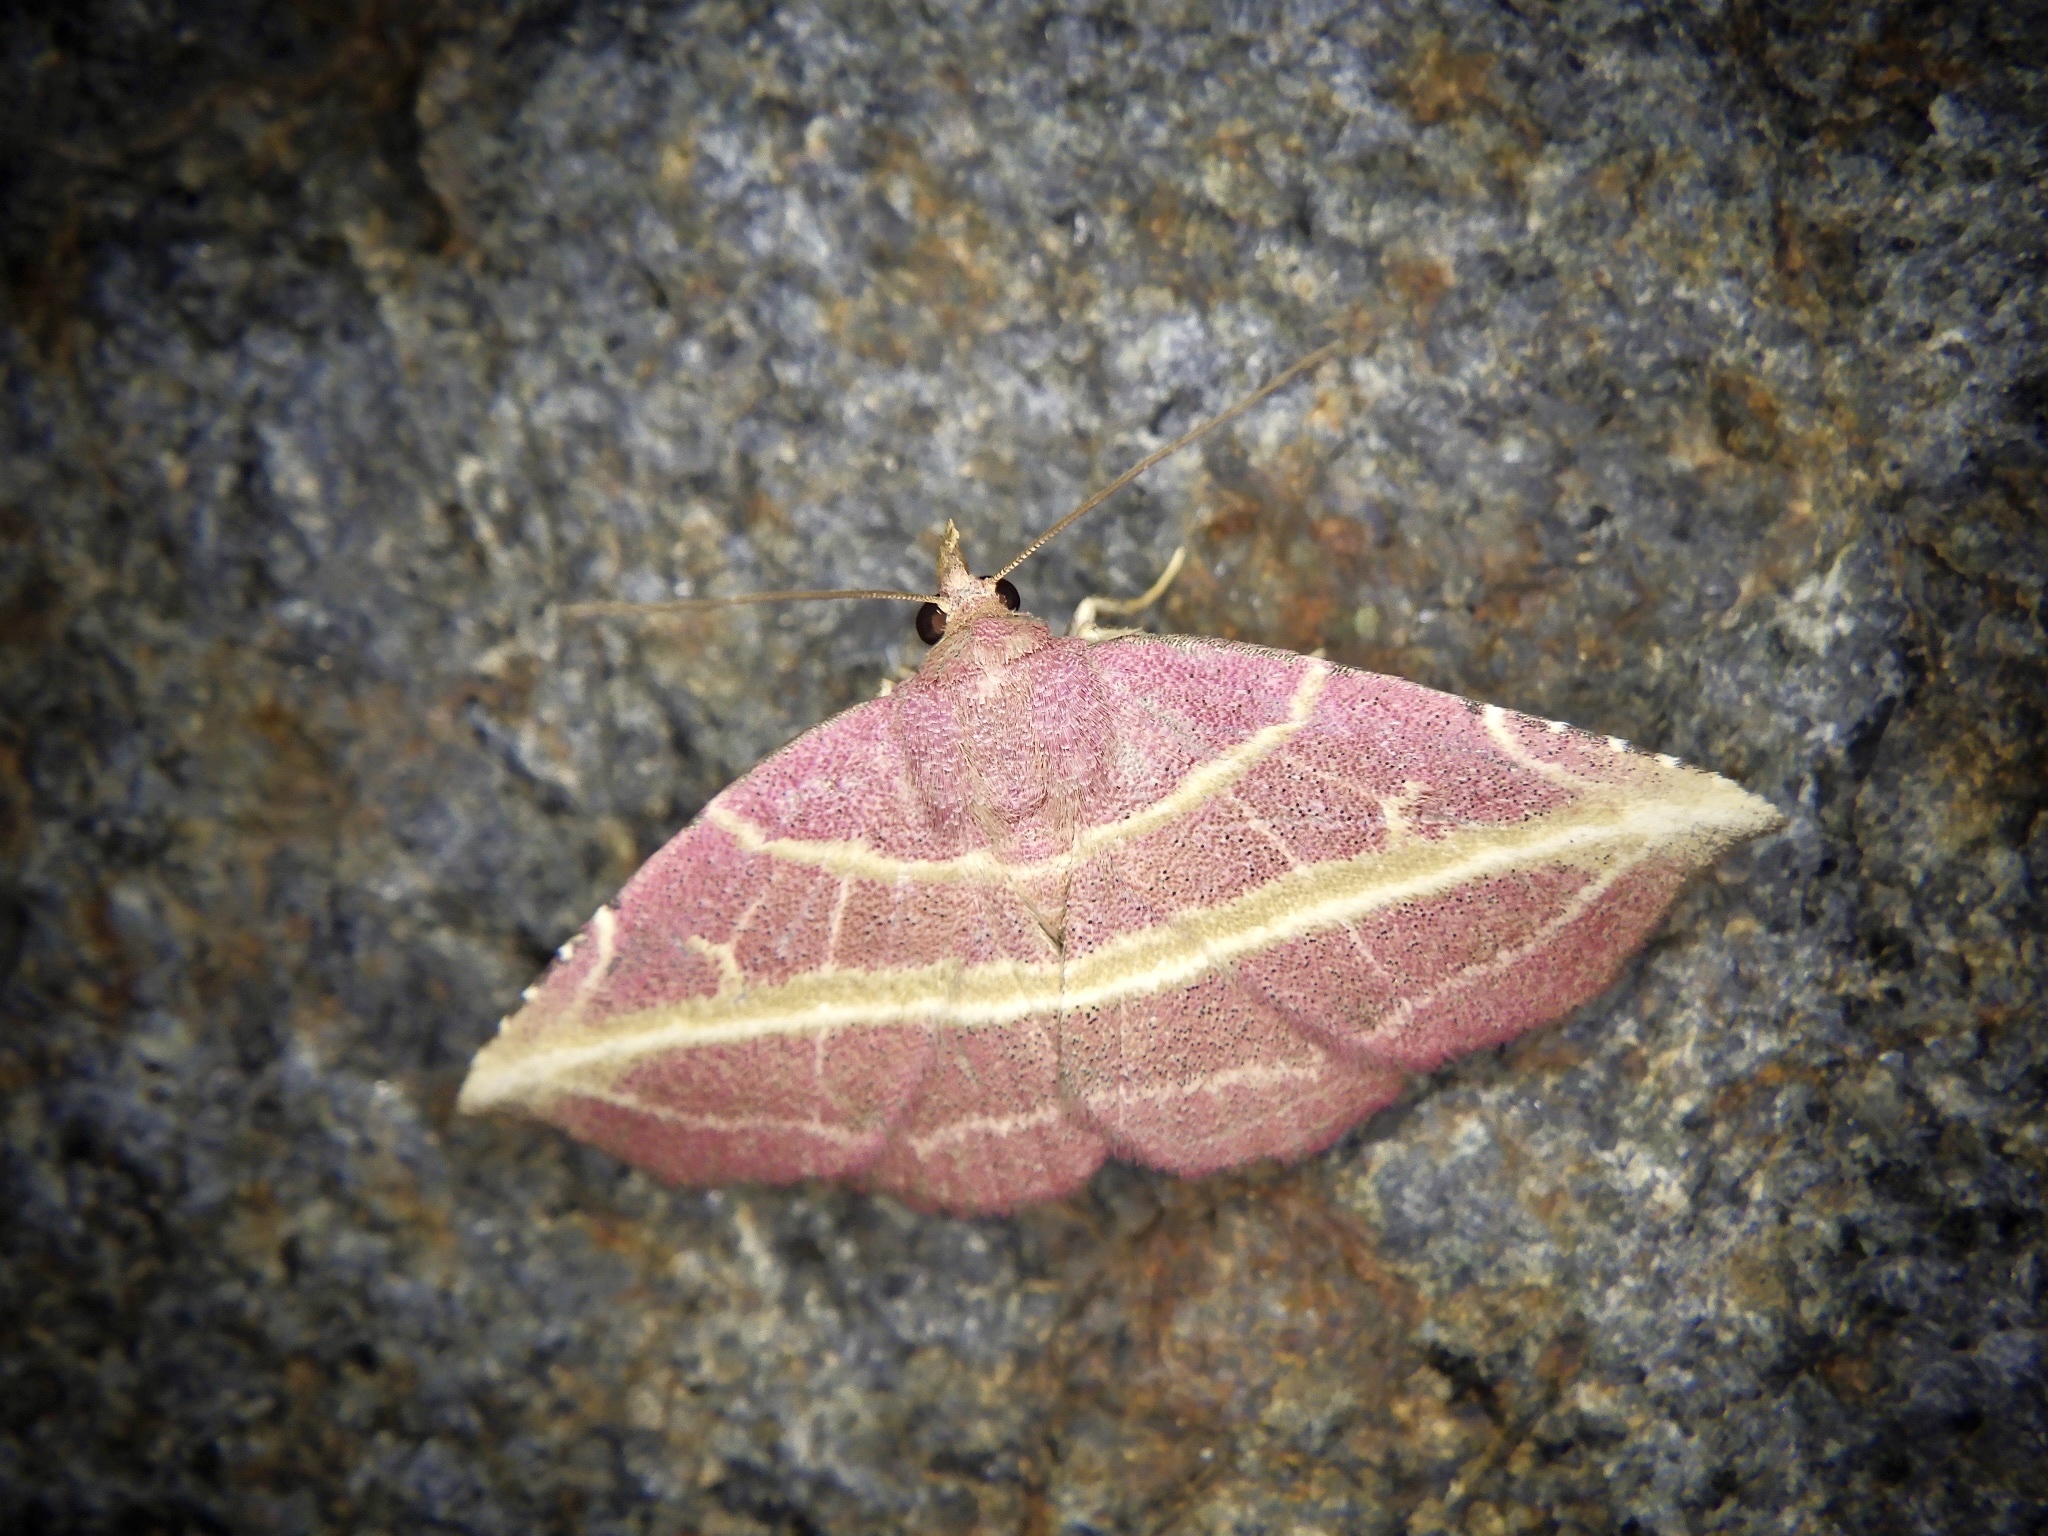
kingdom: Animalia
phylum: Arthropoda
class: Insecta
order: Lepidoptera
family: Noctuidae
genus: Naganoella
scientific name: Naganoella
